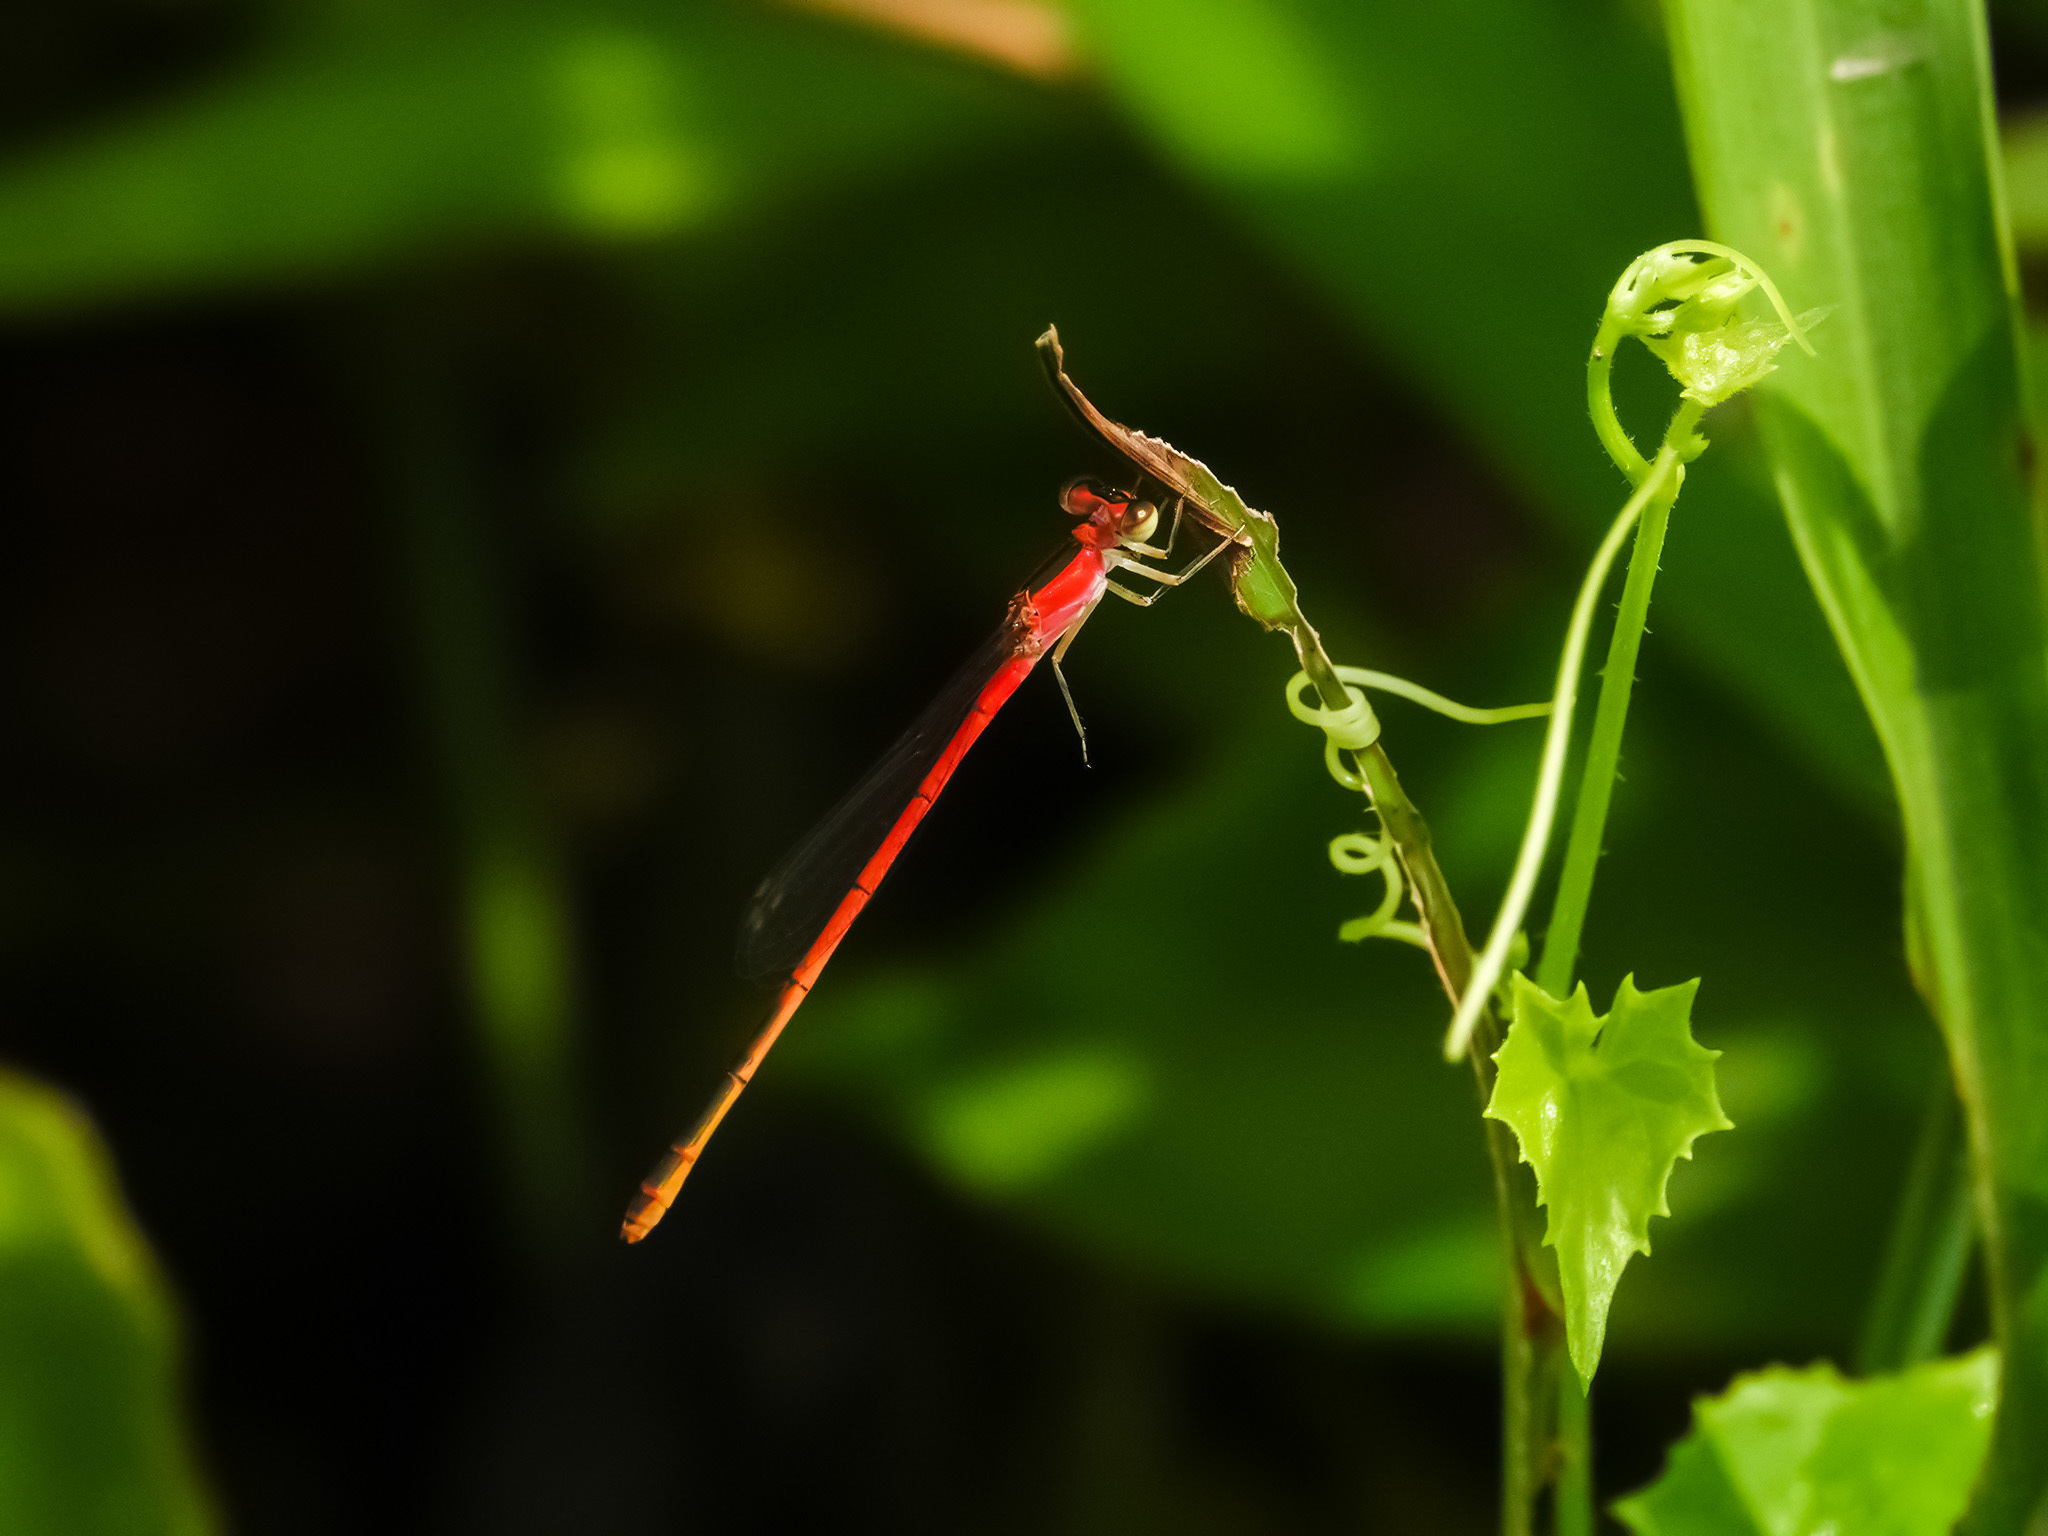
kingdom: Animalia
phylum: Arthropoda
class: Insecta
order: Odonata
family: Coenagrionidae
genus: Agriocnemis
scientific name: Agriocnemis femina
